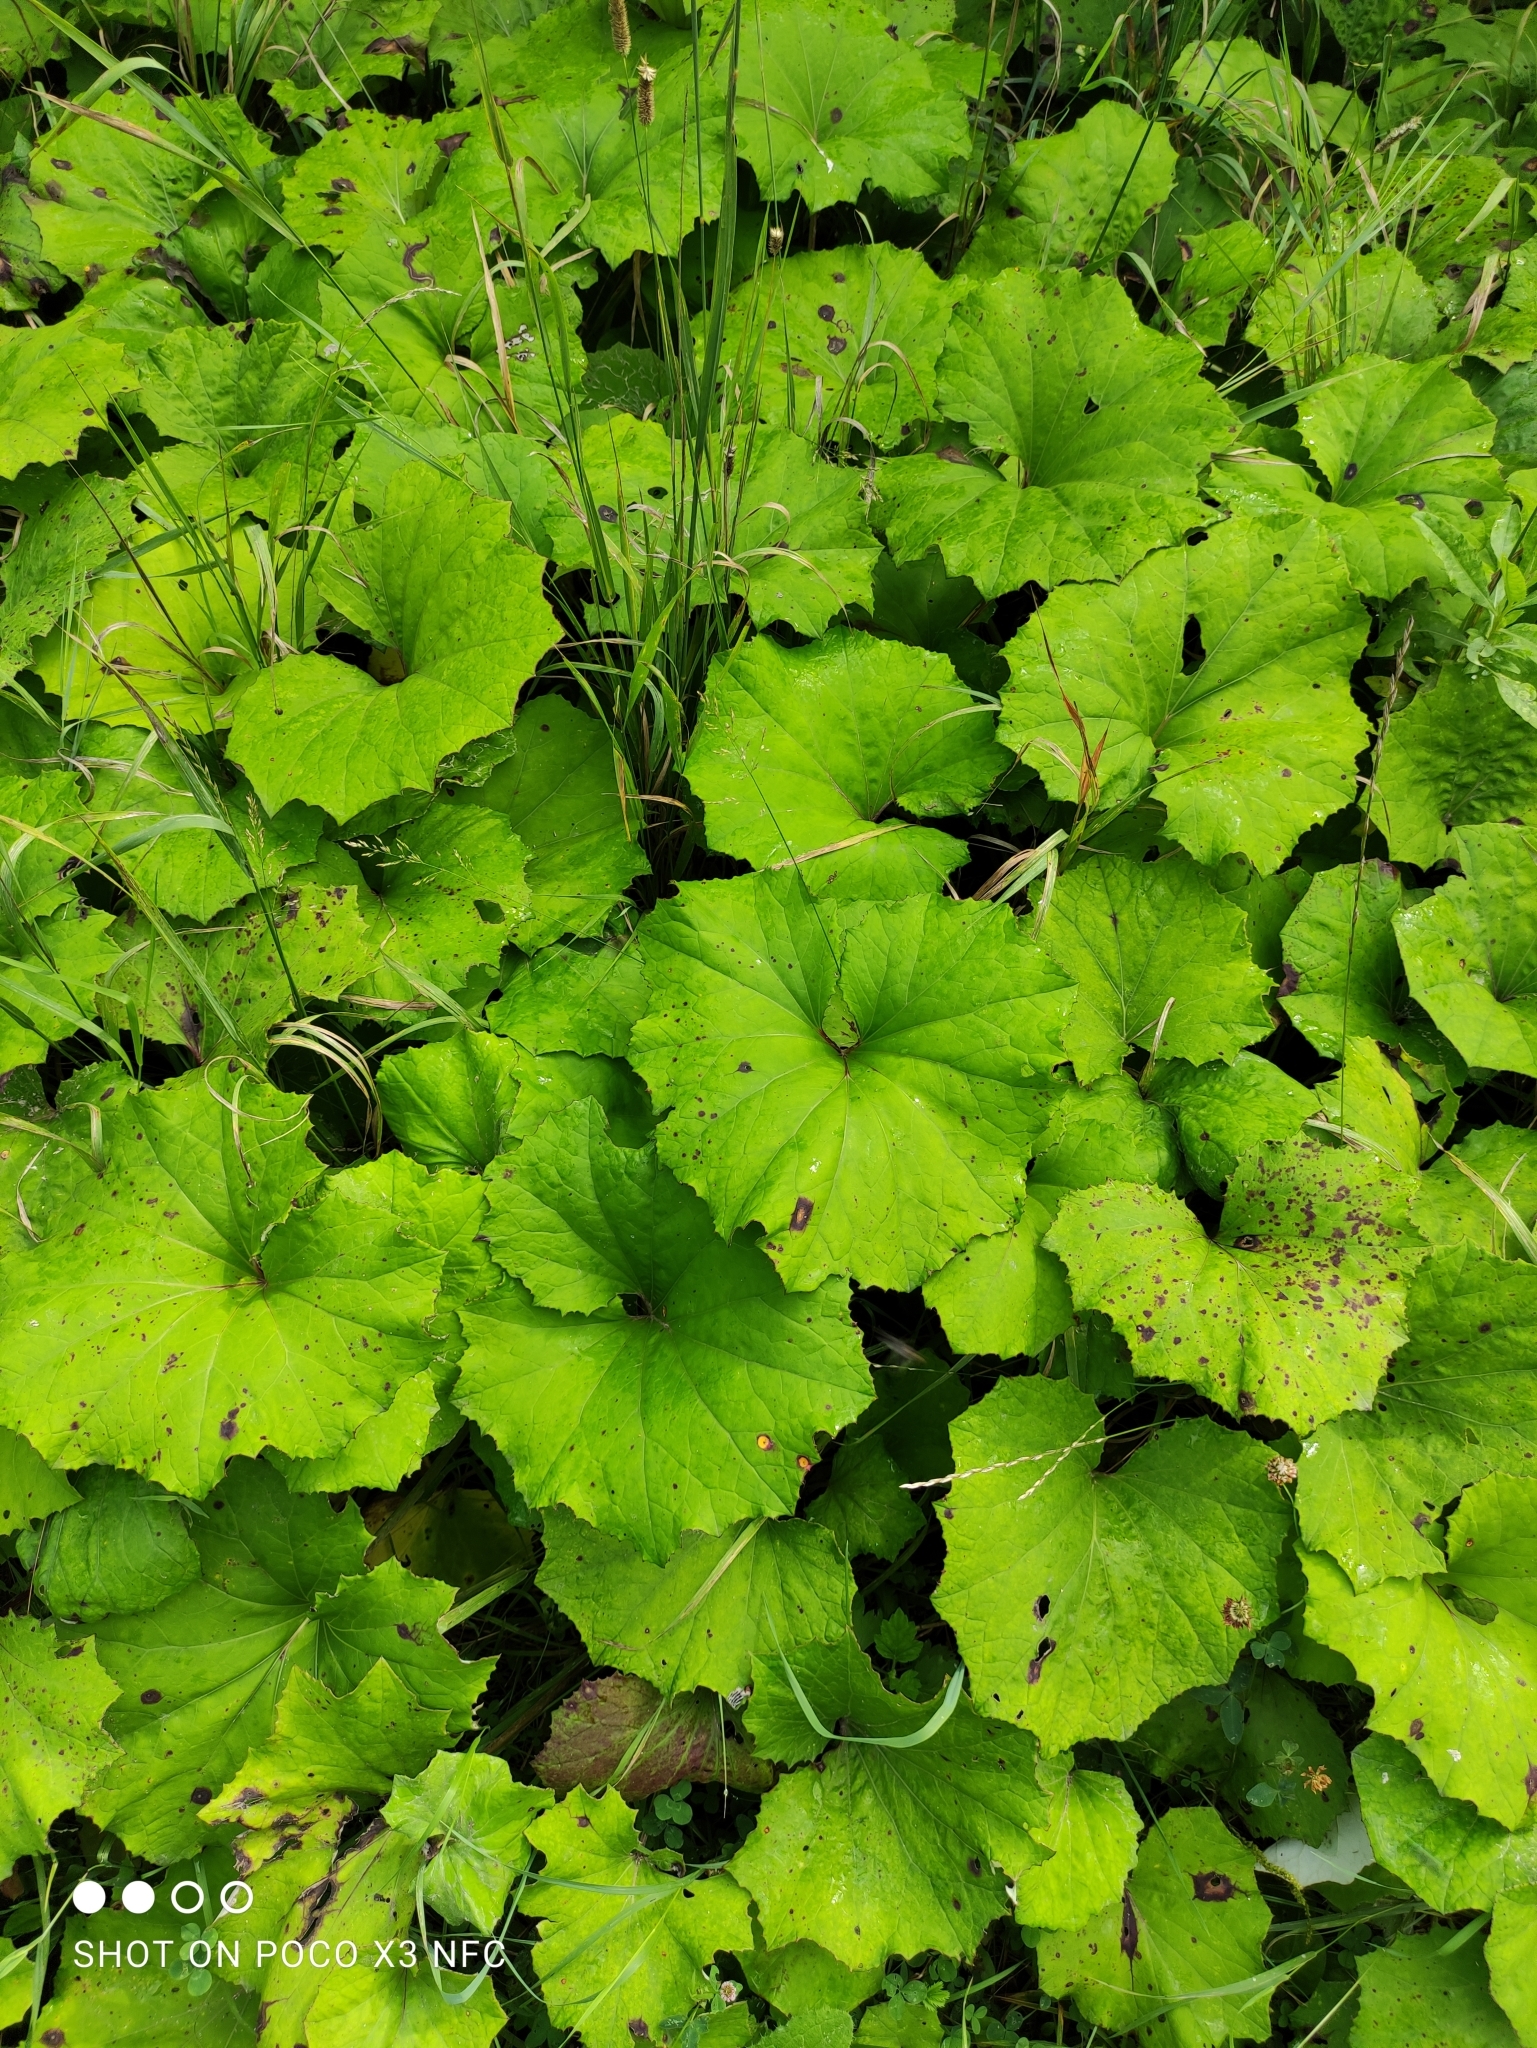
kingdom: Plantae
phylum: Tracheophyta
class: Magnoliopsida
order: Asterales
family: Asteraceae
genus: Tussilago
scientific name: Tussilago farfara
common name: Coltsfoot
